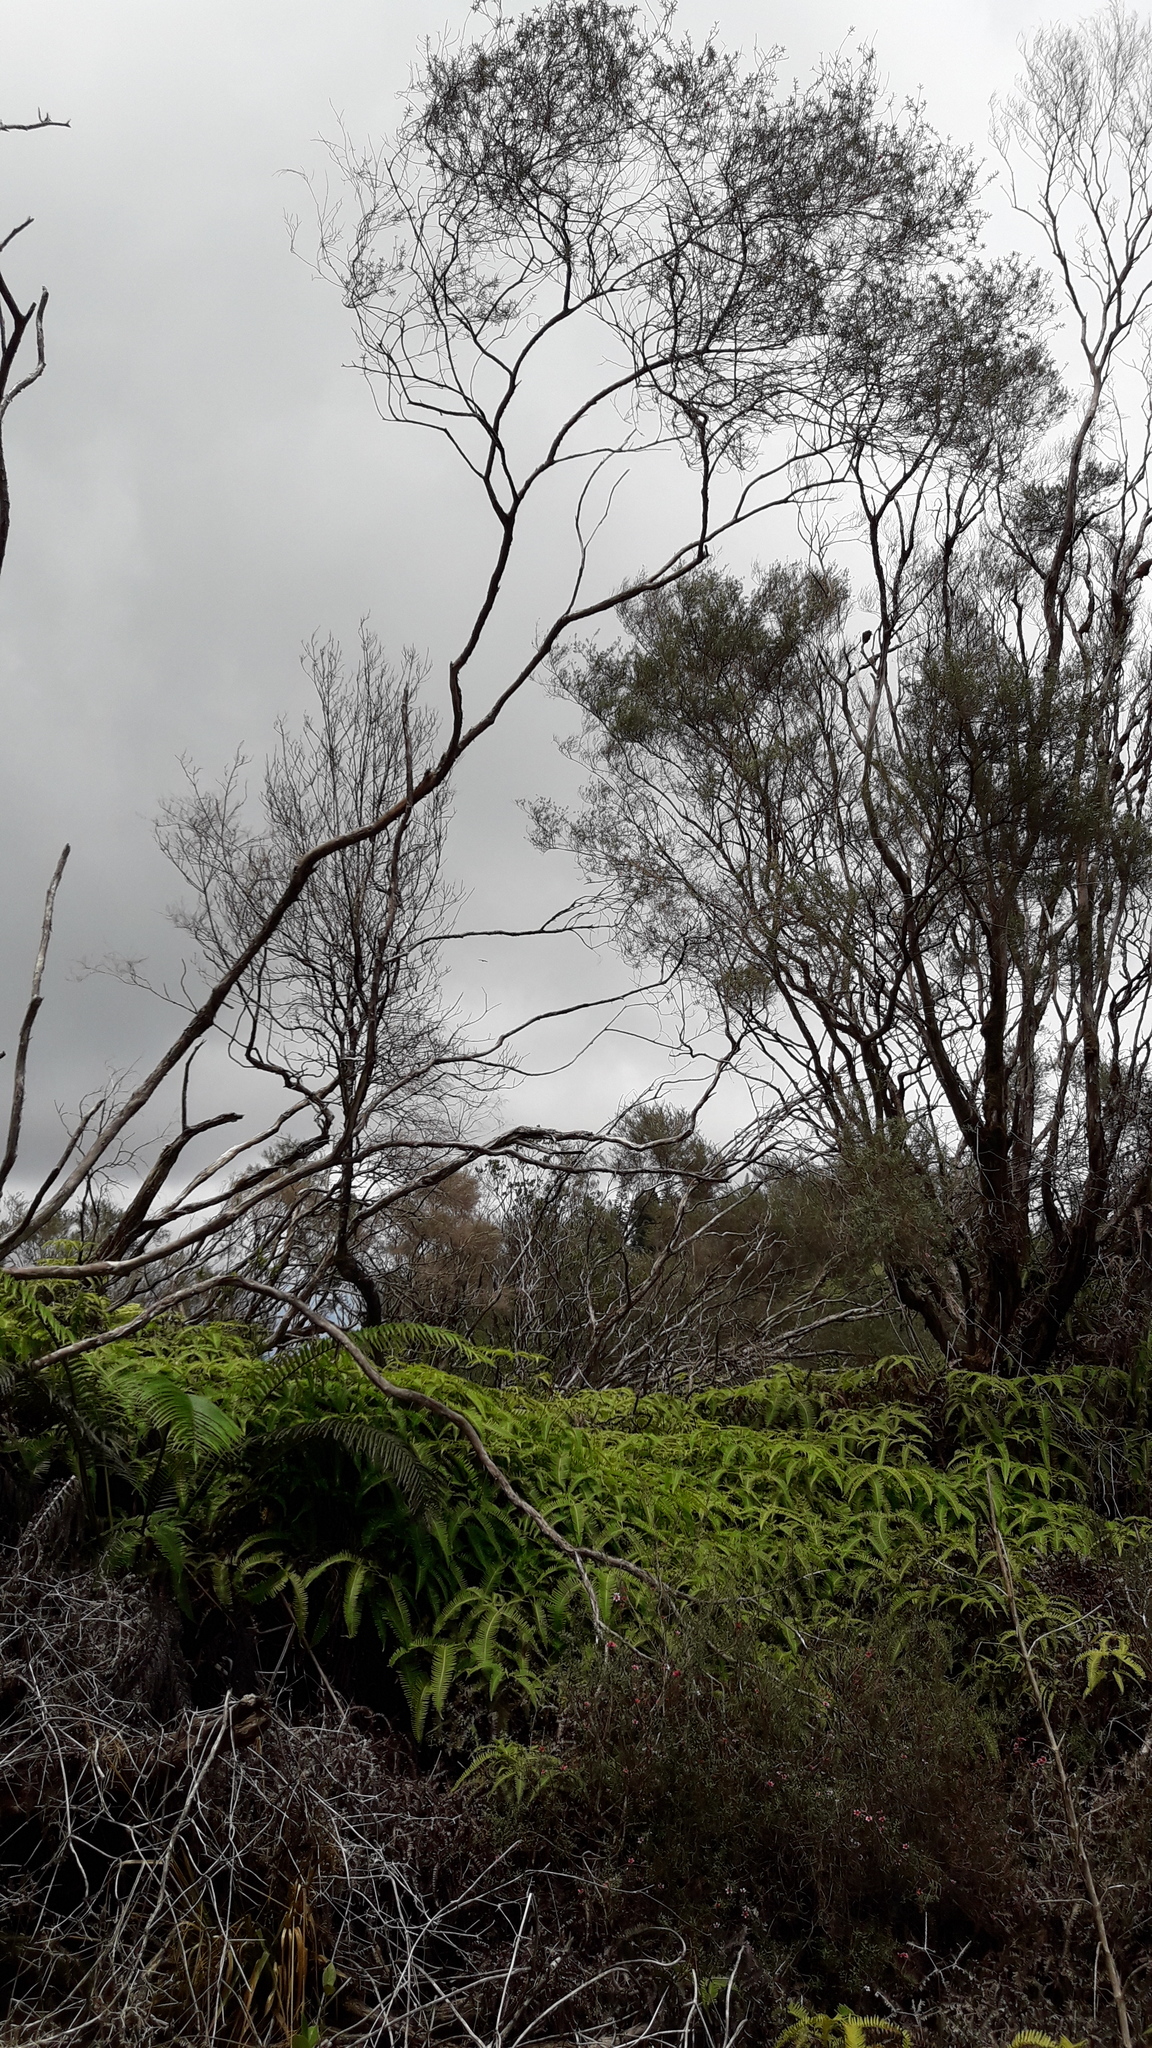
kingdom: Animalia
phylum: Chordata
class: Aves
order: Strigiformes
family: Strigidae
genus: Asio
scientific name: Asio flammeus
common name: Short-eared owl
